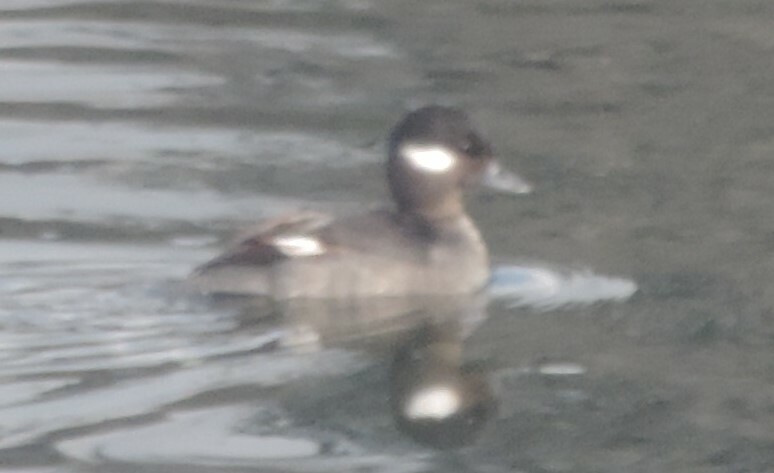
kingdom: Animalia
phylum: Chordata
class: Aves
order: Anseriformes
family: Anatidae
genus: Bucephala
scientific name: Bucephala albeola
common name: Bufflehead
